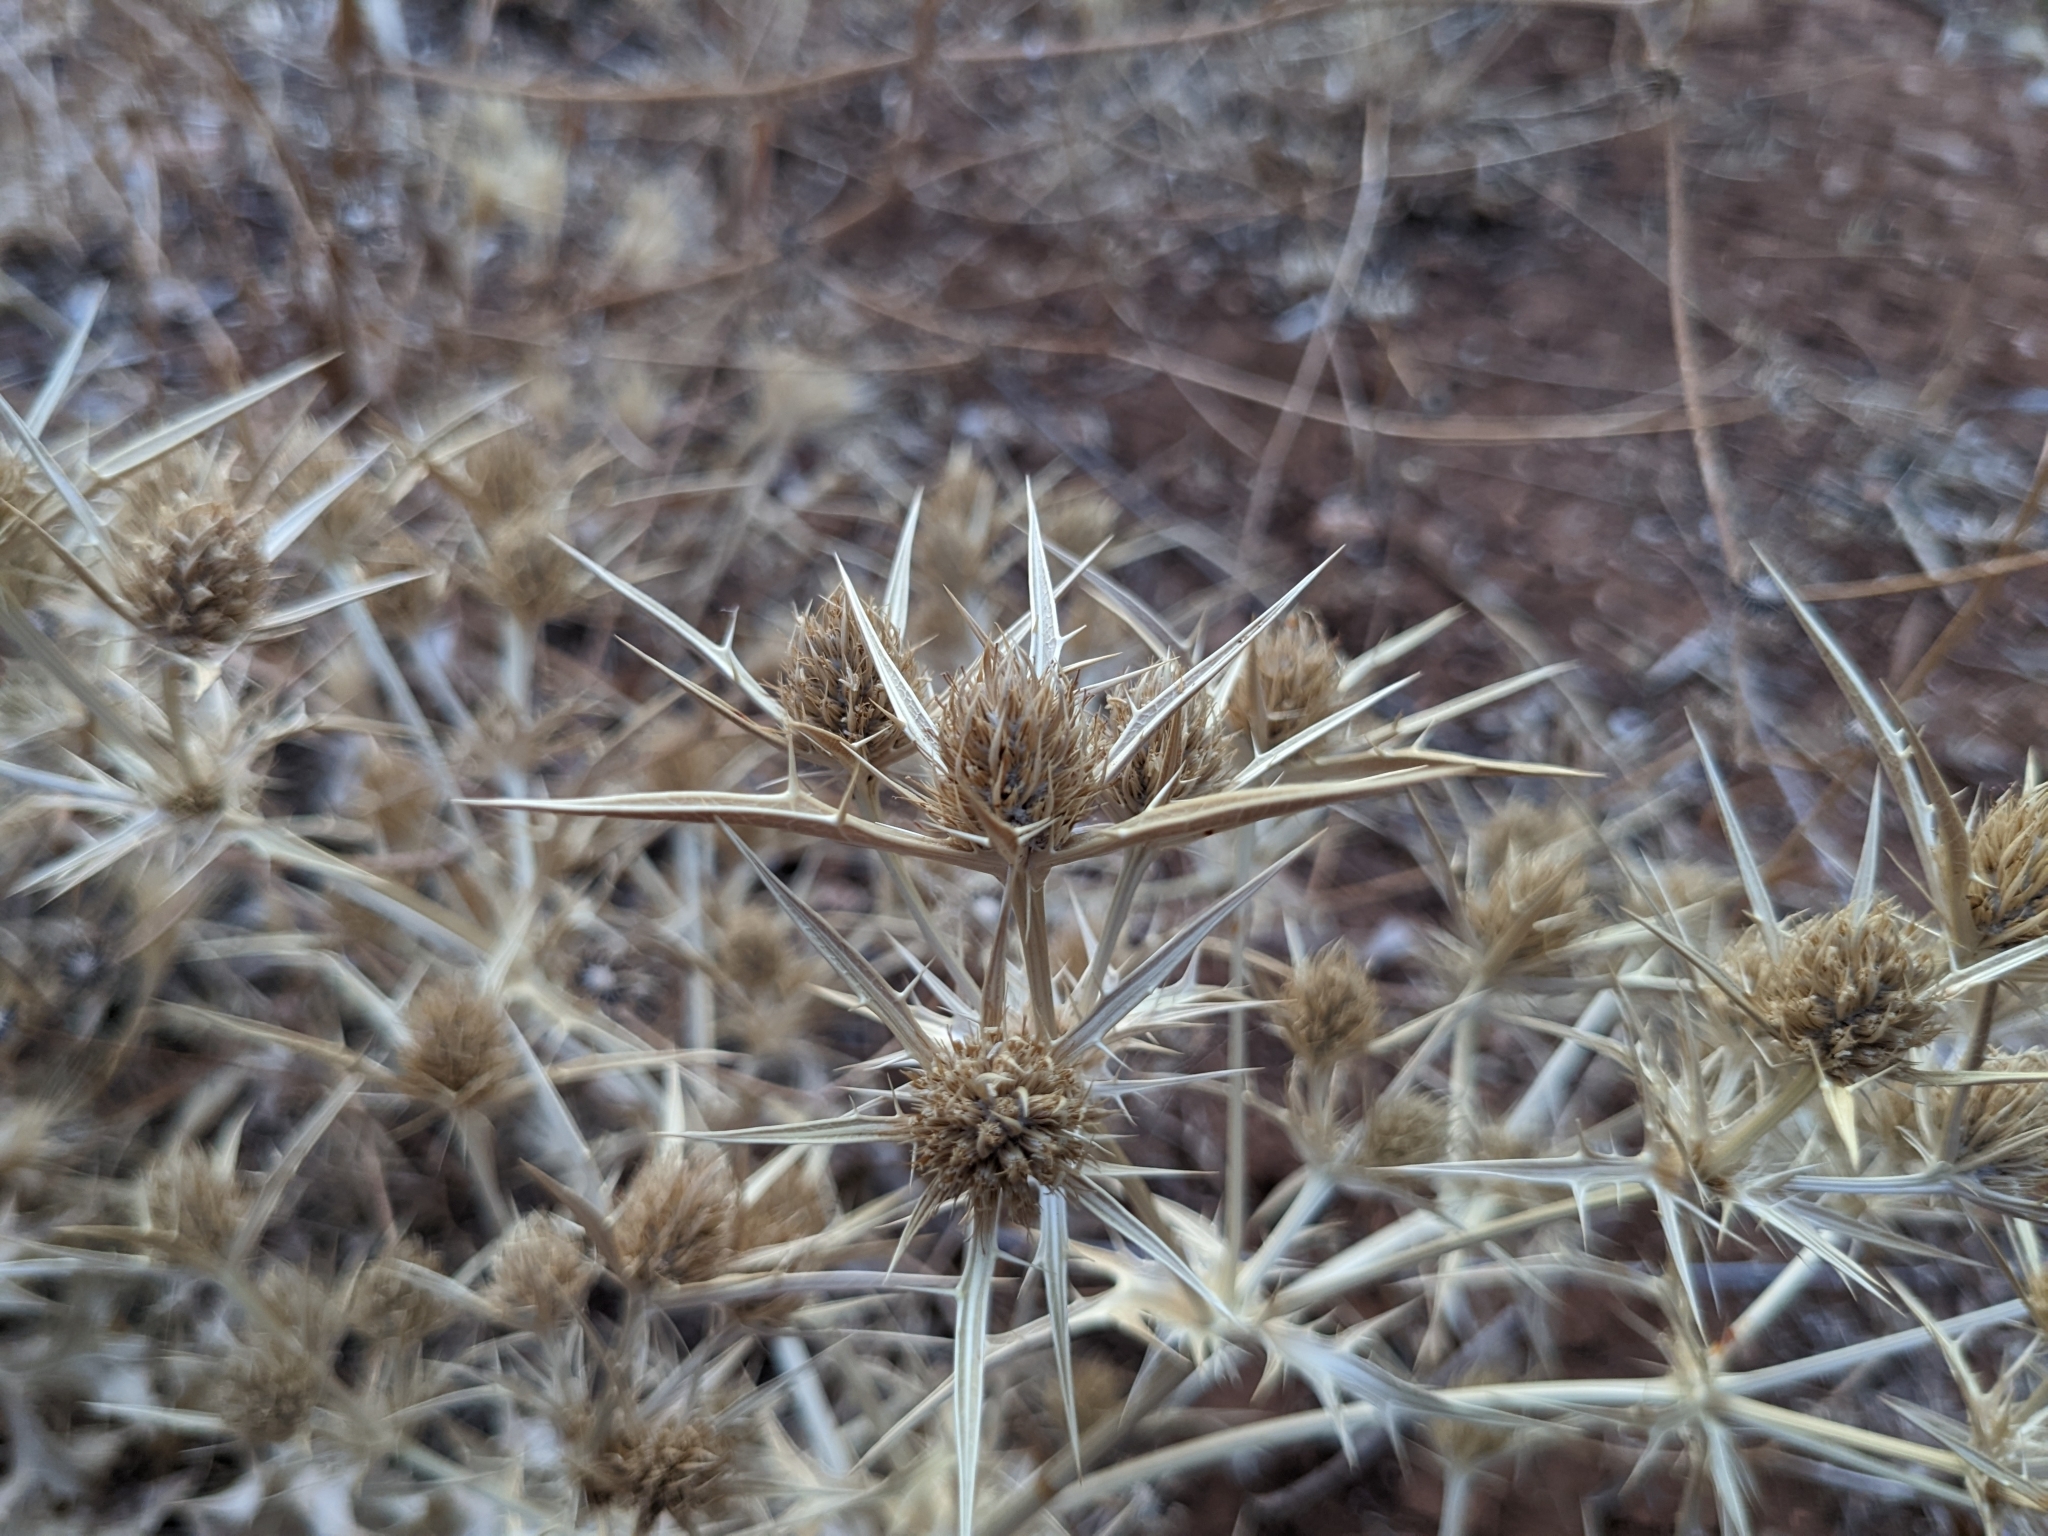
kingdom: Plantae
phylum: Tracheophyta
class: Magnoliopsida
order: Apiales
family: Apiaceae
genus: Eryngium
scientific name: Eryngium campestre
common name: Field eryngo
